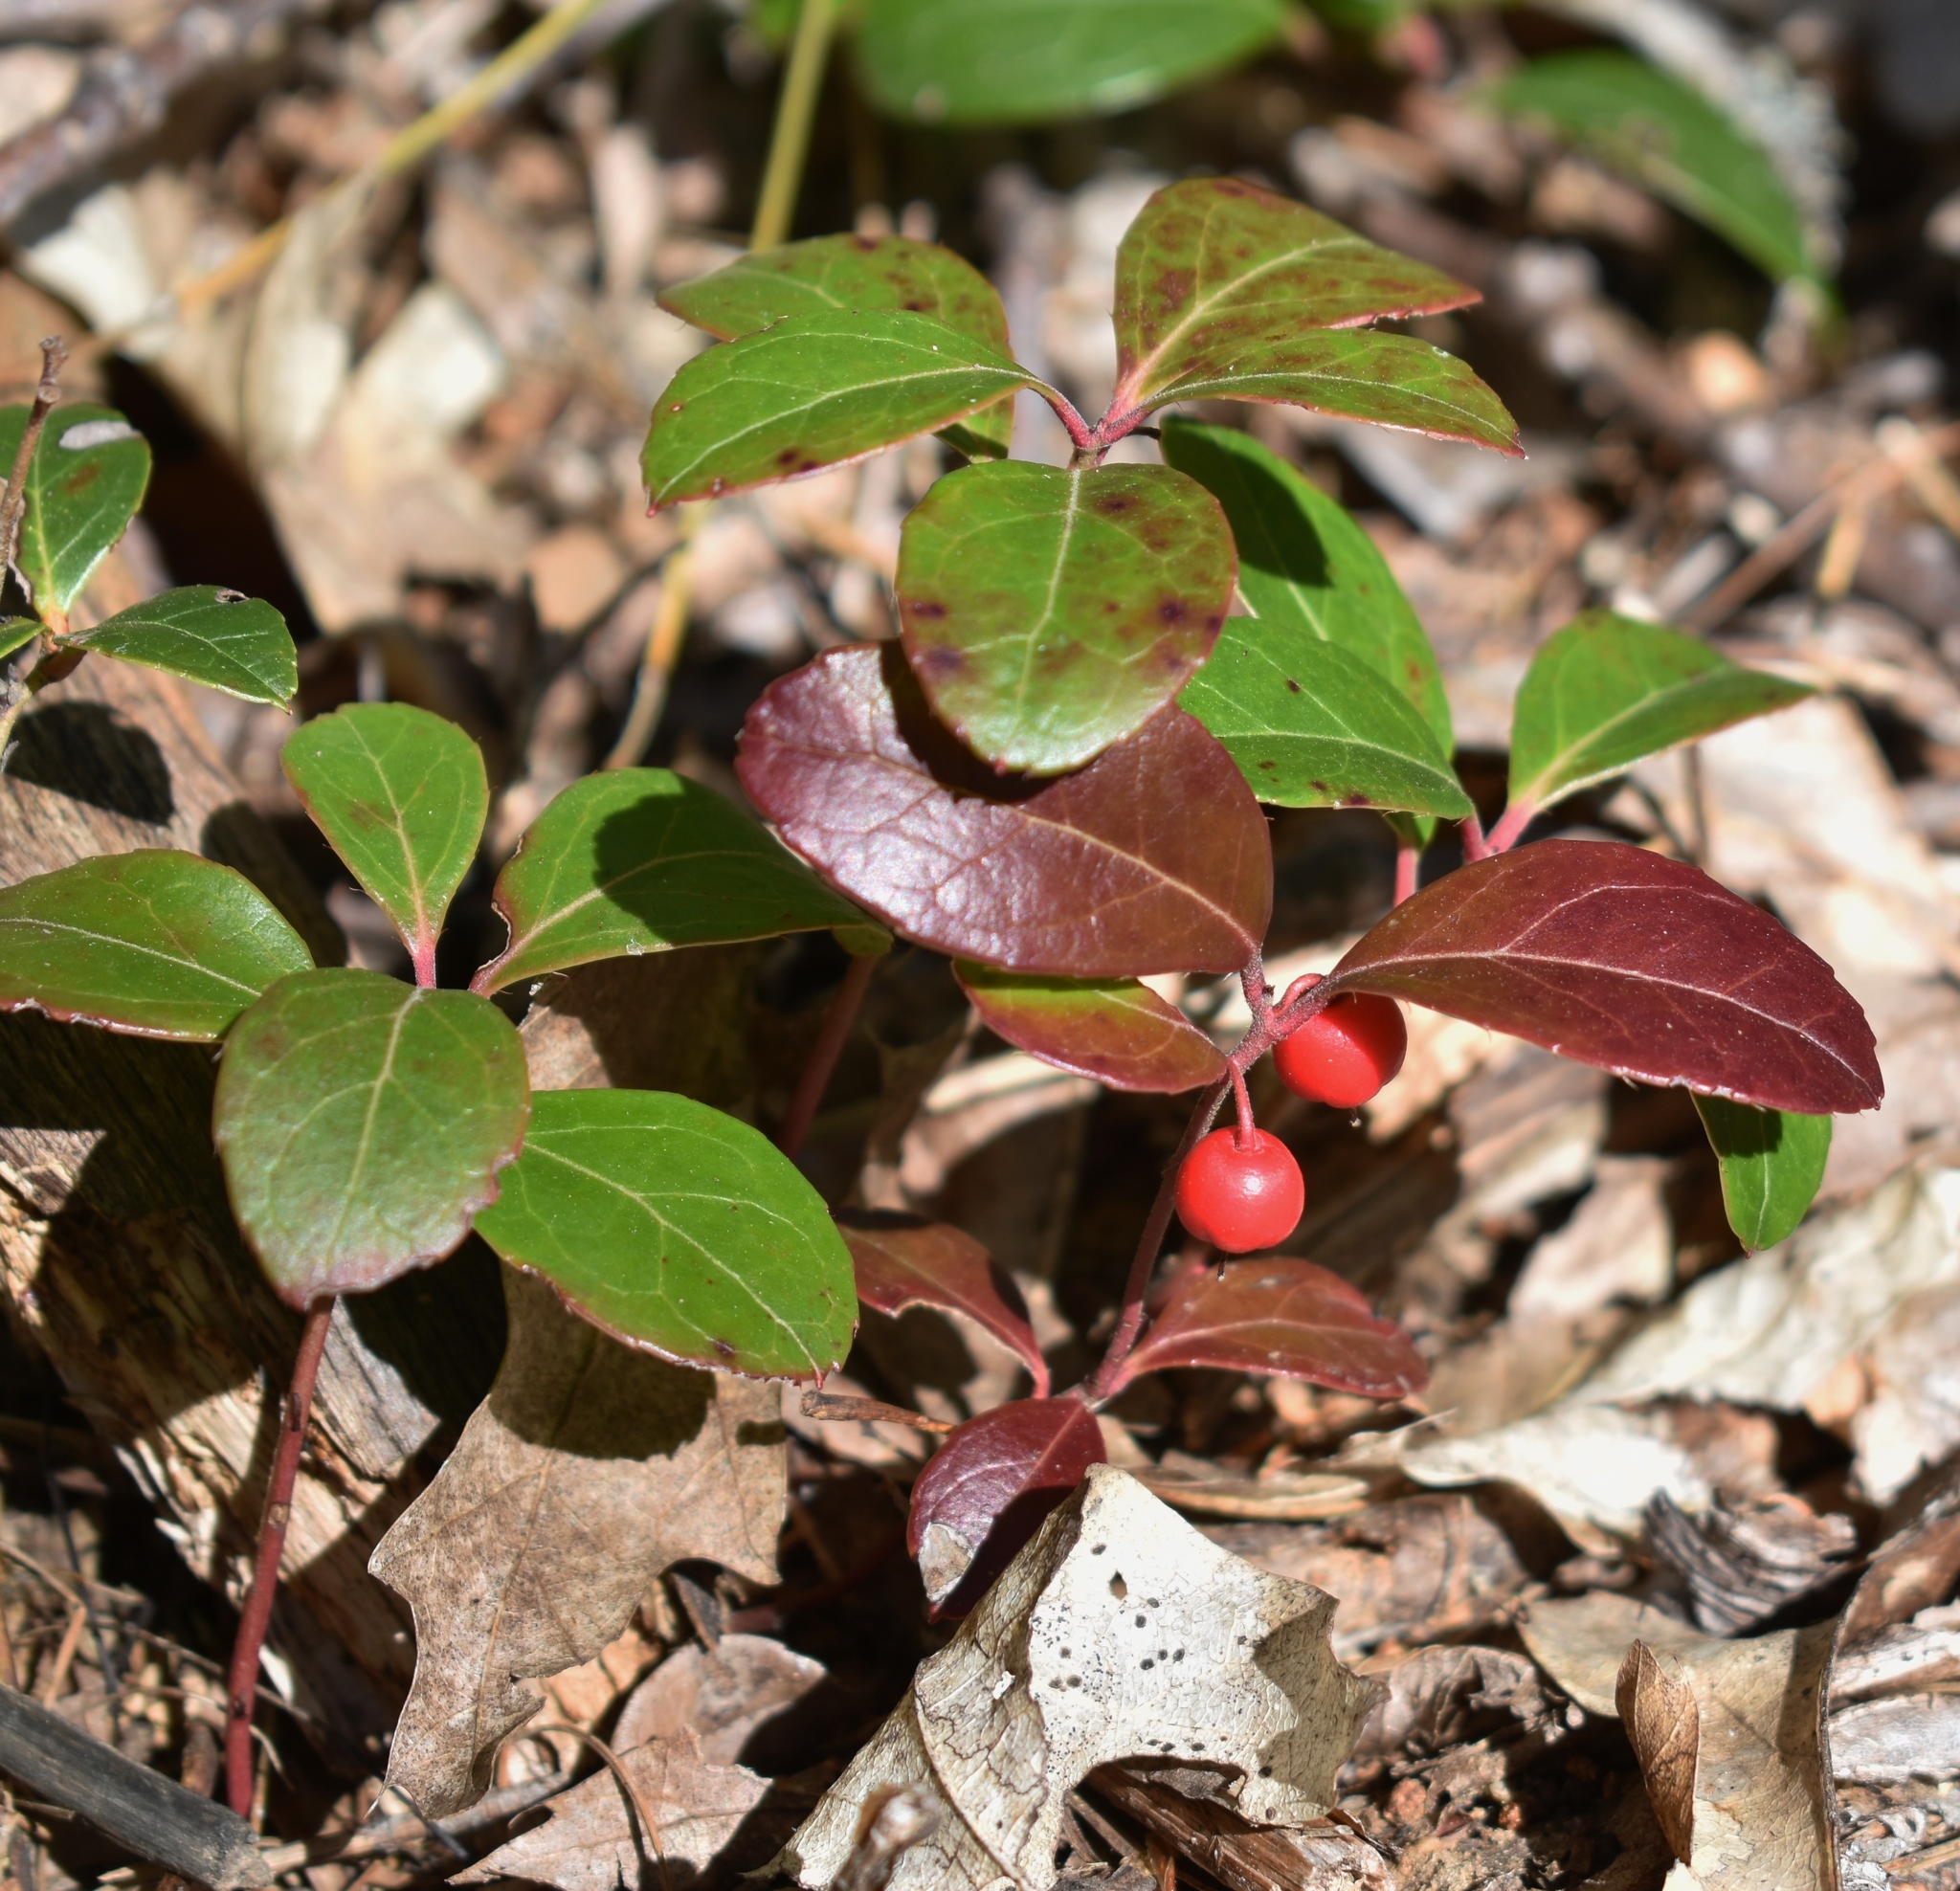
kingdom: Plantae
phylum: Tracheophyta
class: Magnoliopsida
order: Ericales
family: Ericaceae
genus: Gaultheria
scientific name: Gaultheria procumbens
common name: Checkerberry
